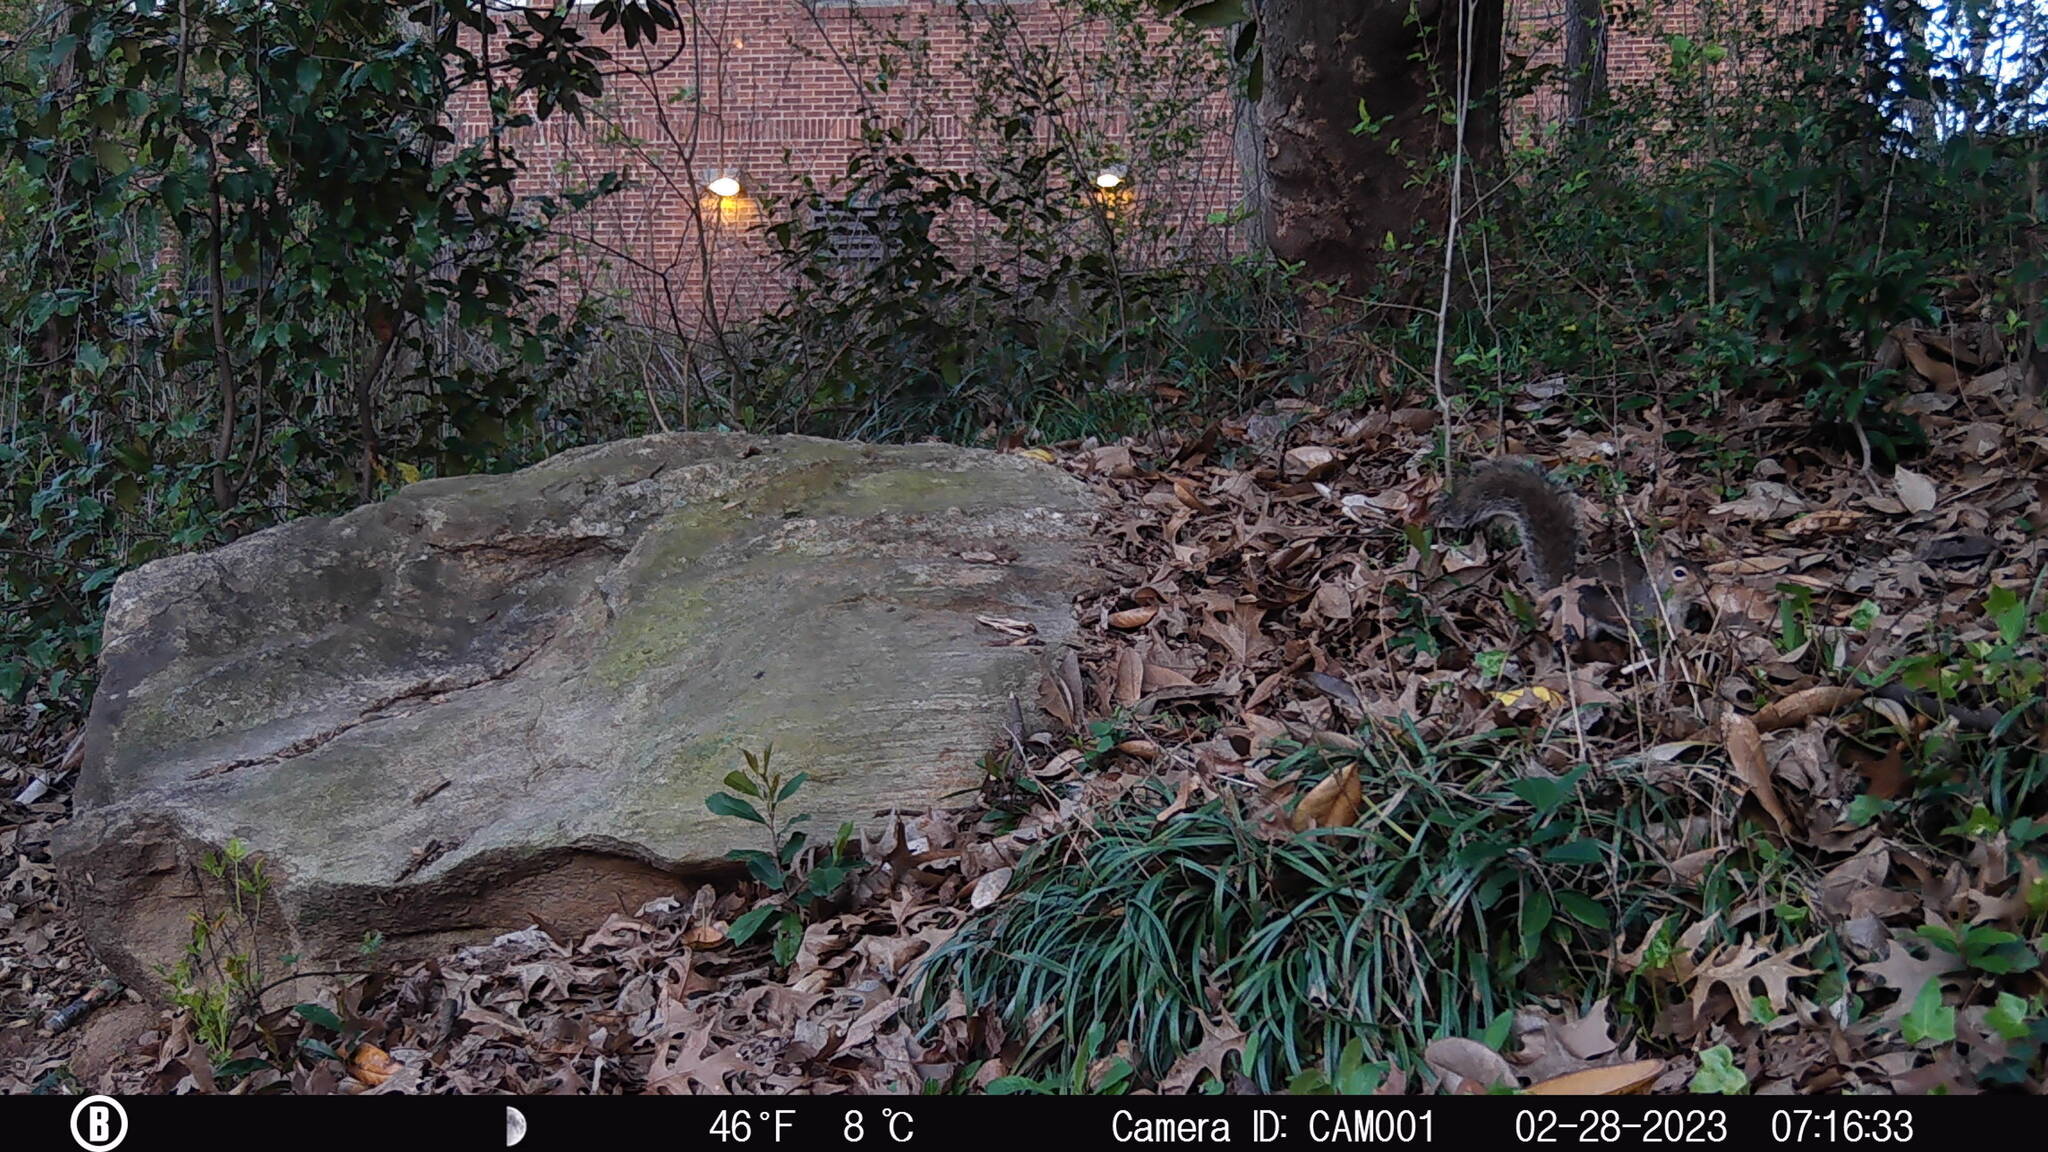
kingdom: Animalia
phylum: Chordata
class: Mammalia
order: Rodentia
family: Sciuridae
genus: Sciurus
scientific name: Sciurus carolinensis
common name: Eastern gray squirrel
